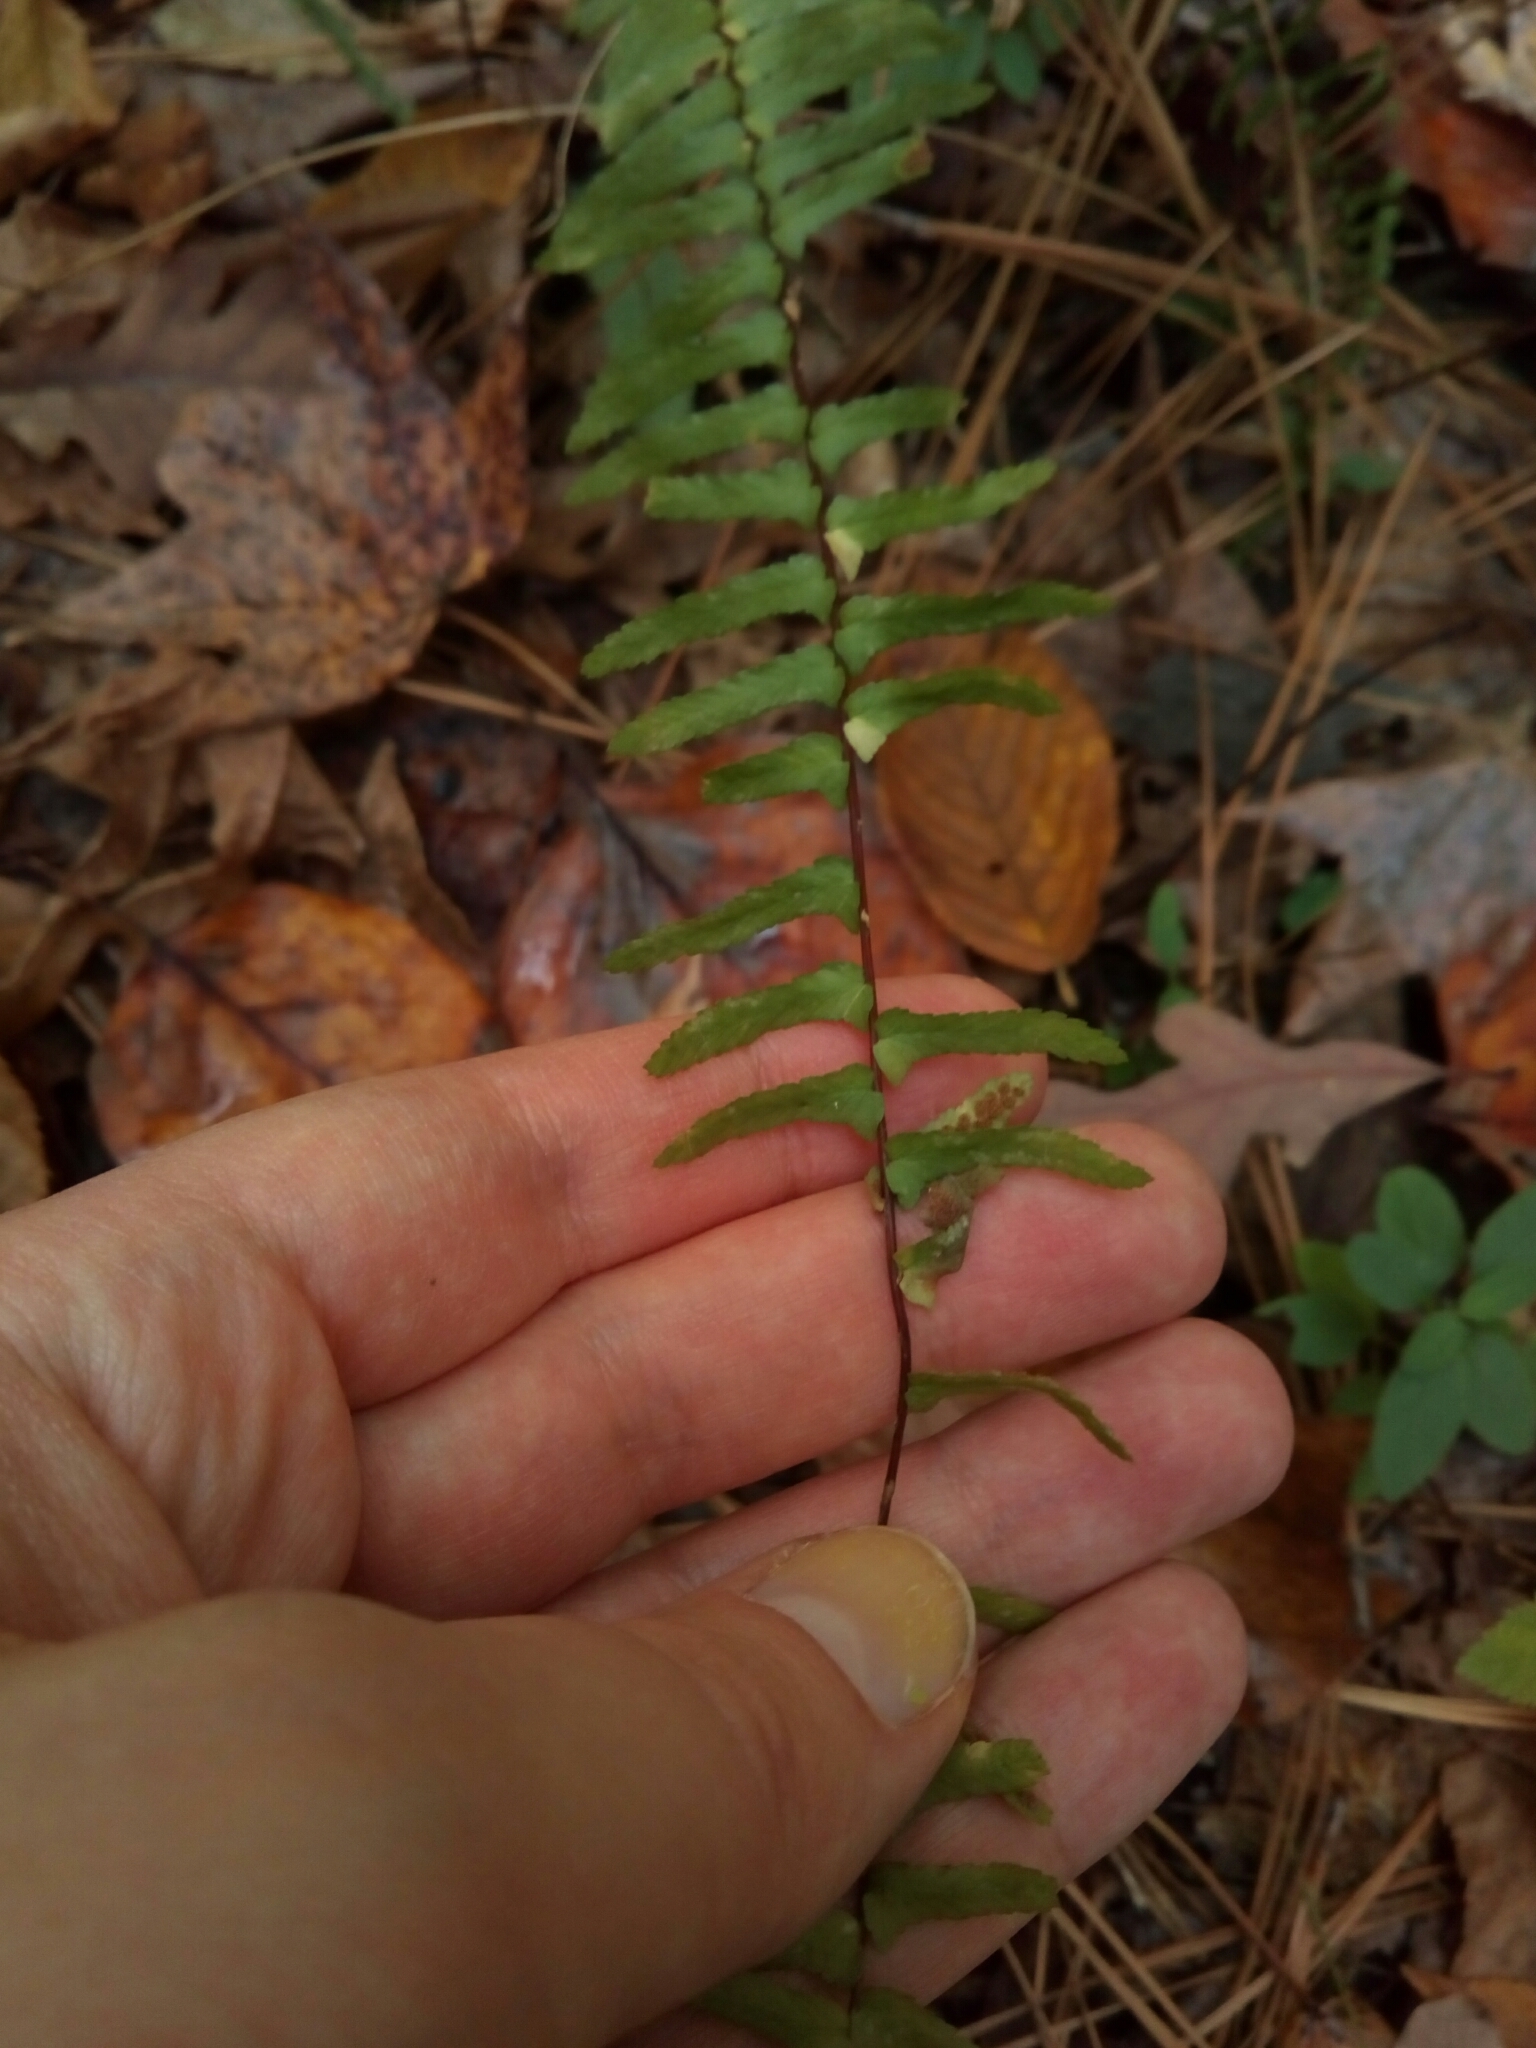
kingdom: Plantae
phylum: Tracheophyta
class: Polypodiopsida
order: Polypodiales
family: Aspleniaceae
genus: Asplenium
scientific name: Asplenium platyneuron
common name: Ebony spleenwort
